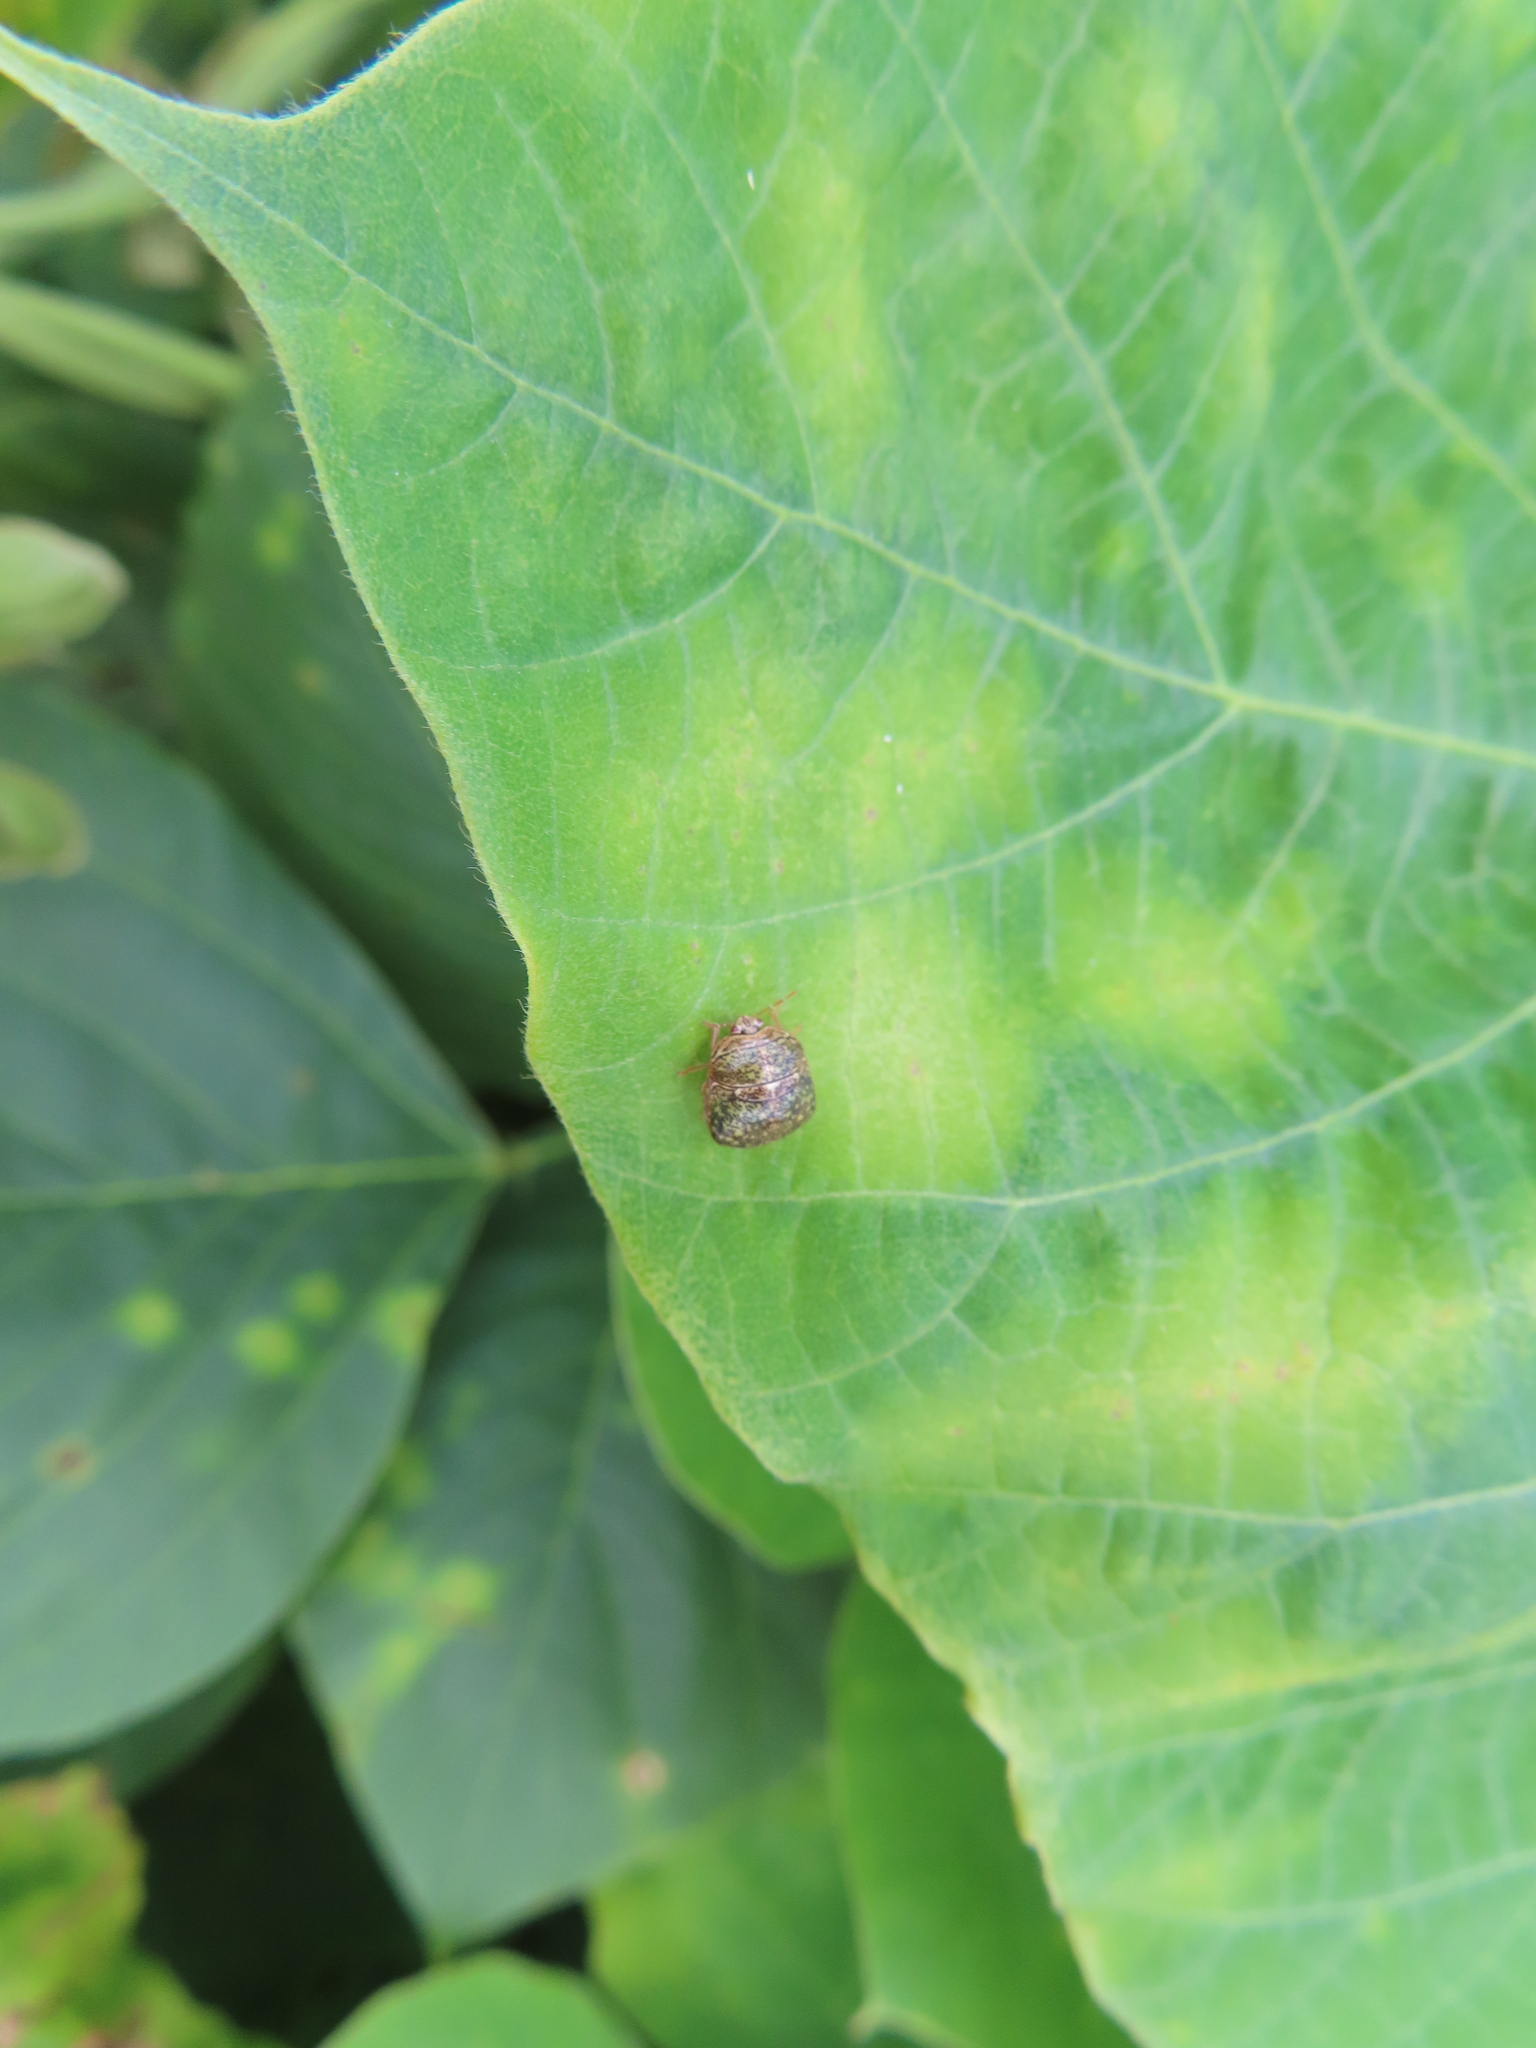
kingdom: Animalia
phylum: Arthropoda
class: Insecta
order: Hemiptera
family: Plataspidae
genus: Megacopta
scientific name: Megacopta cribraria
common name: Bean plataspid
